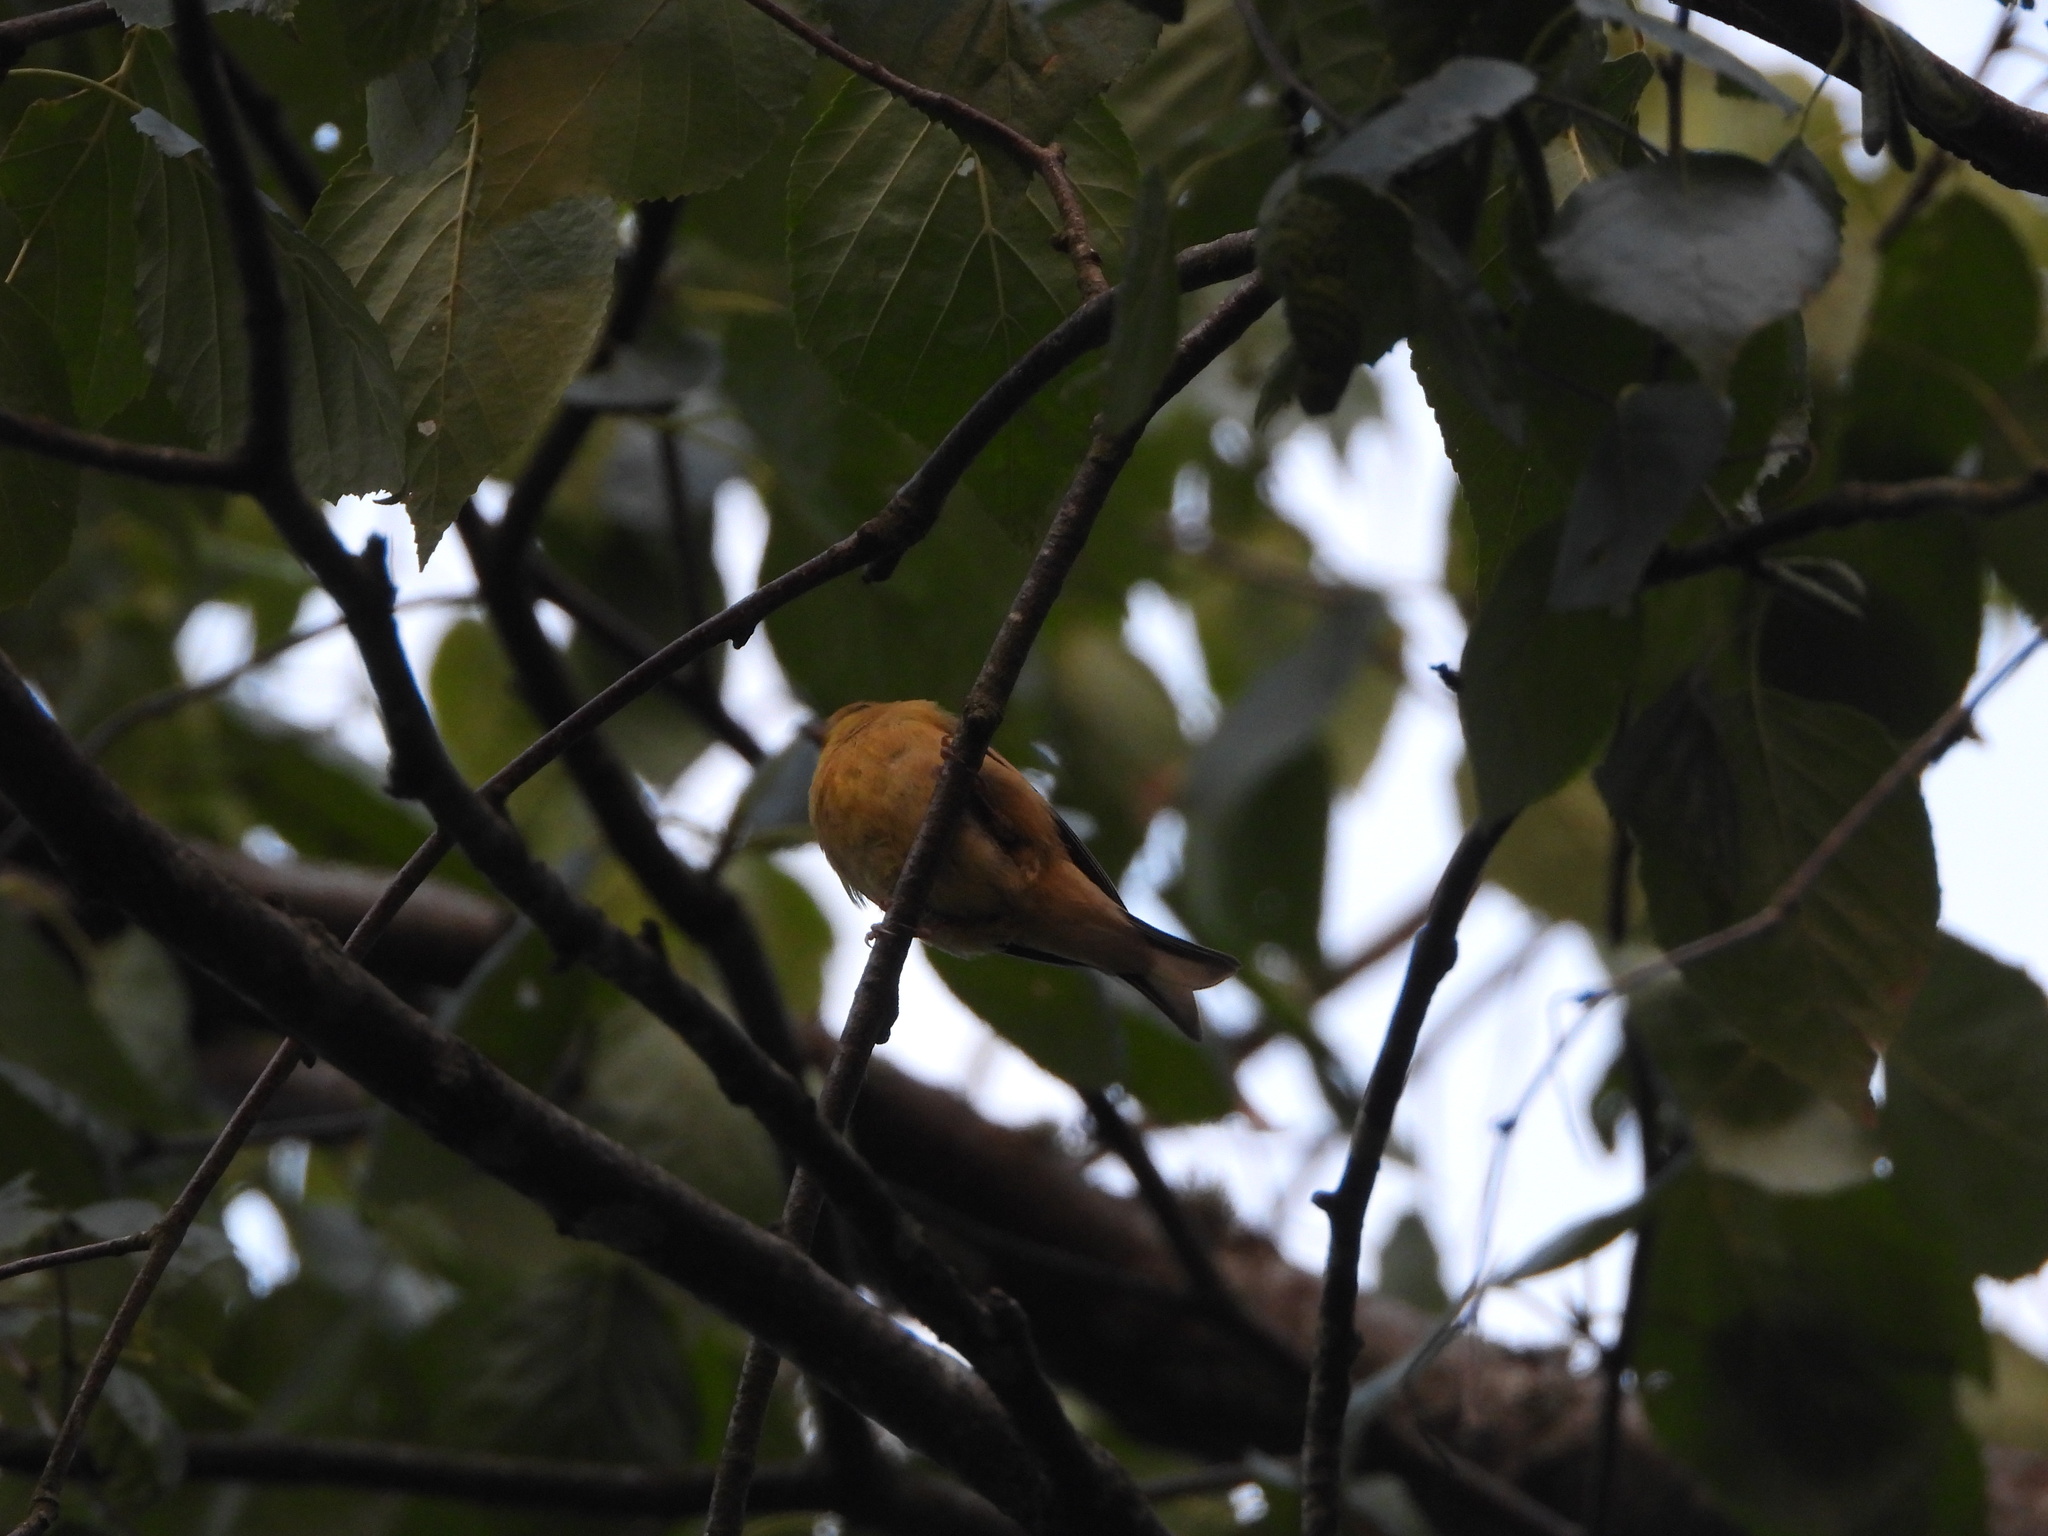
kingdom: Animalia
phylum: Chordata
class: Aves
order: Passeriformes
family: Fringillidae
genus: Spinus
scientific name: Spinus tristis
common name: American goldfinch
